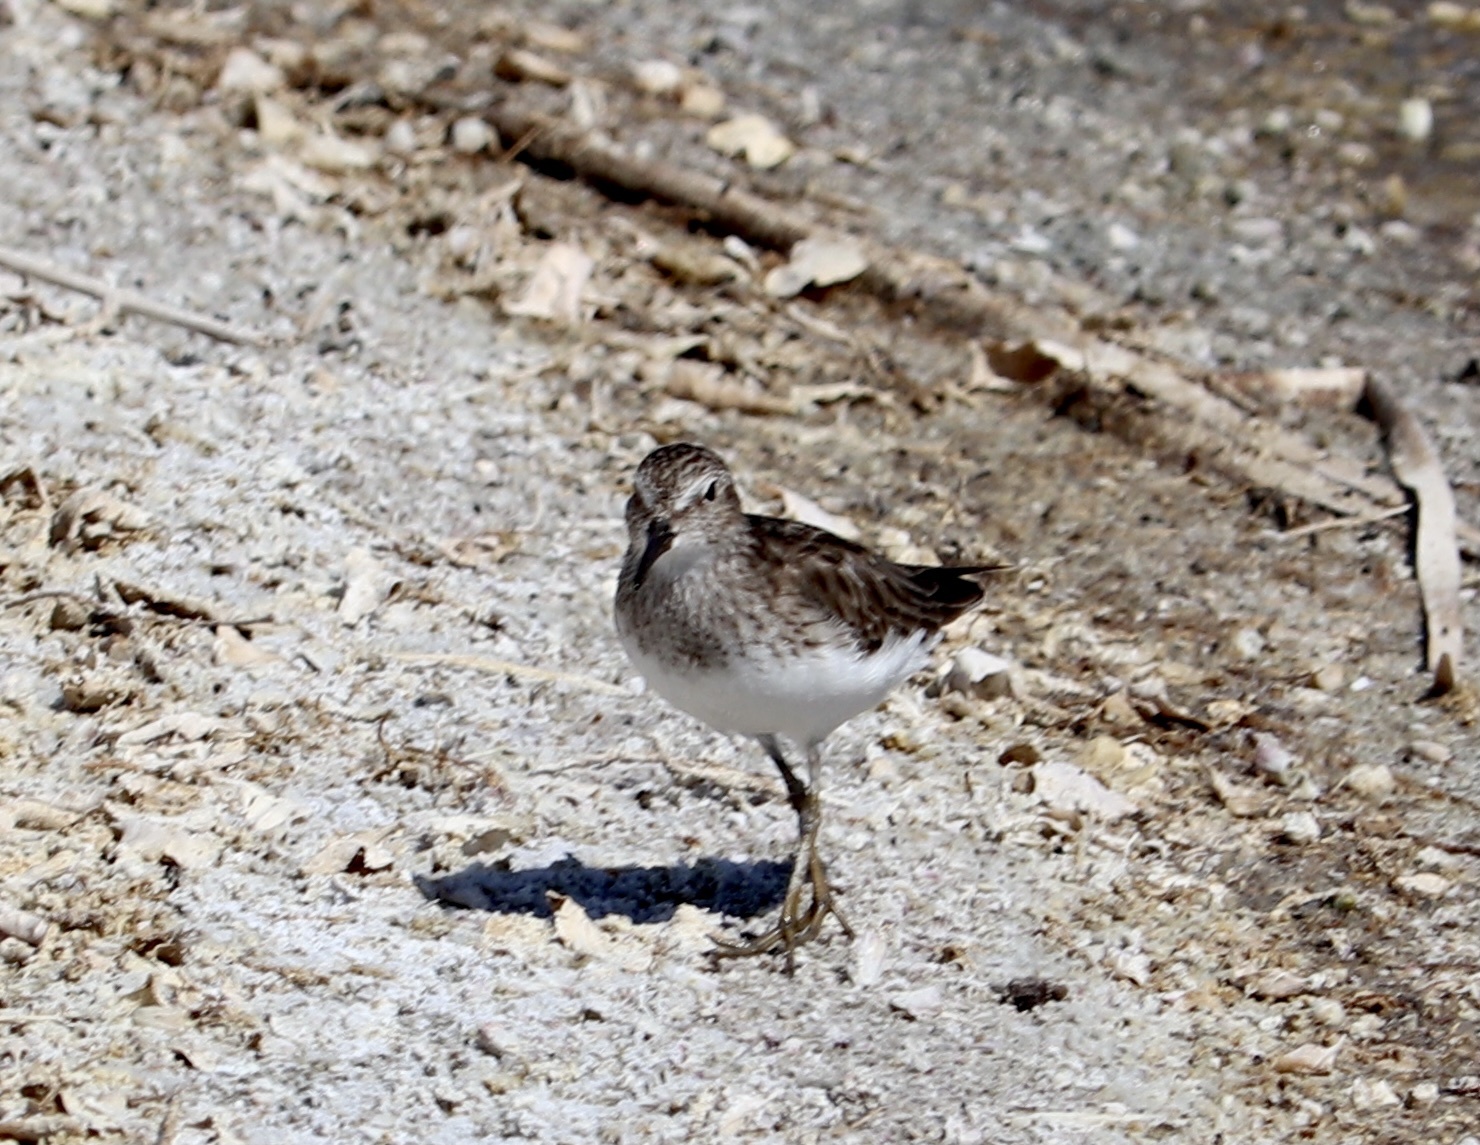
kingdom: Animalia
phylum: Chordata
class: Aves
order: Charadriiformes
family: Scolopacidae
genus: Calidris
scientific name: Calidris minutilla
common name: Least sandpiper
